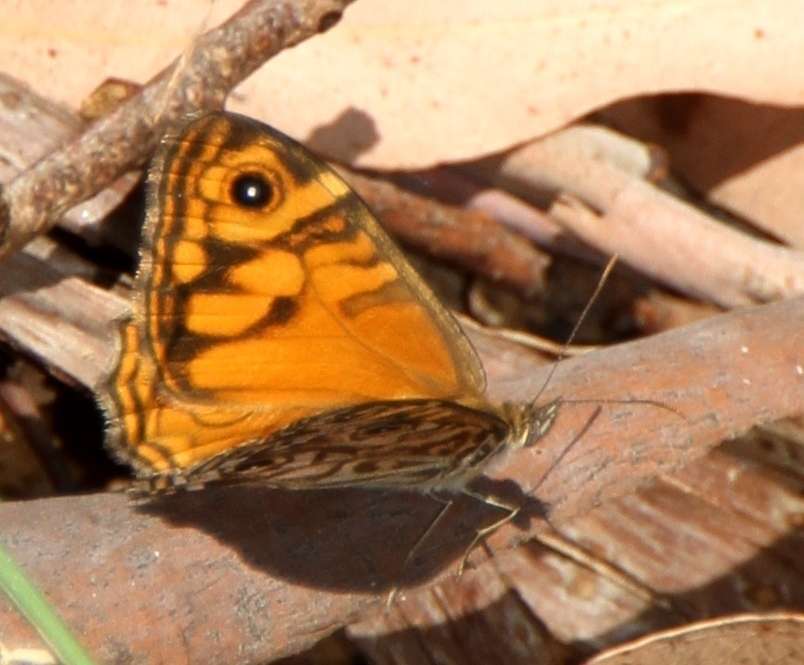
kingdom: Animalia
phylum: Arthropoda
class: Insecta
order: Lepidoptera
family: Nymphalidae
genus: Geitoneura
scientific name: Geitoneura acantha
